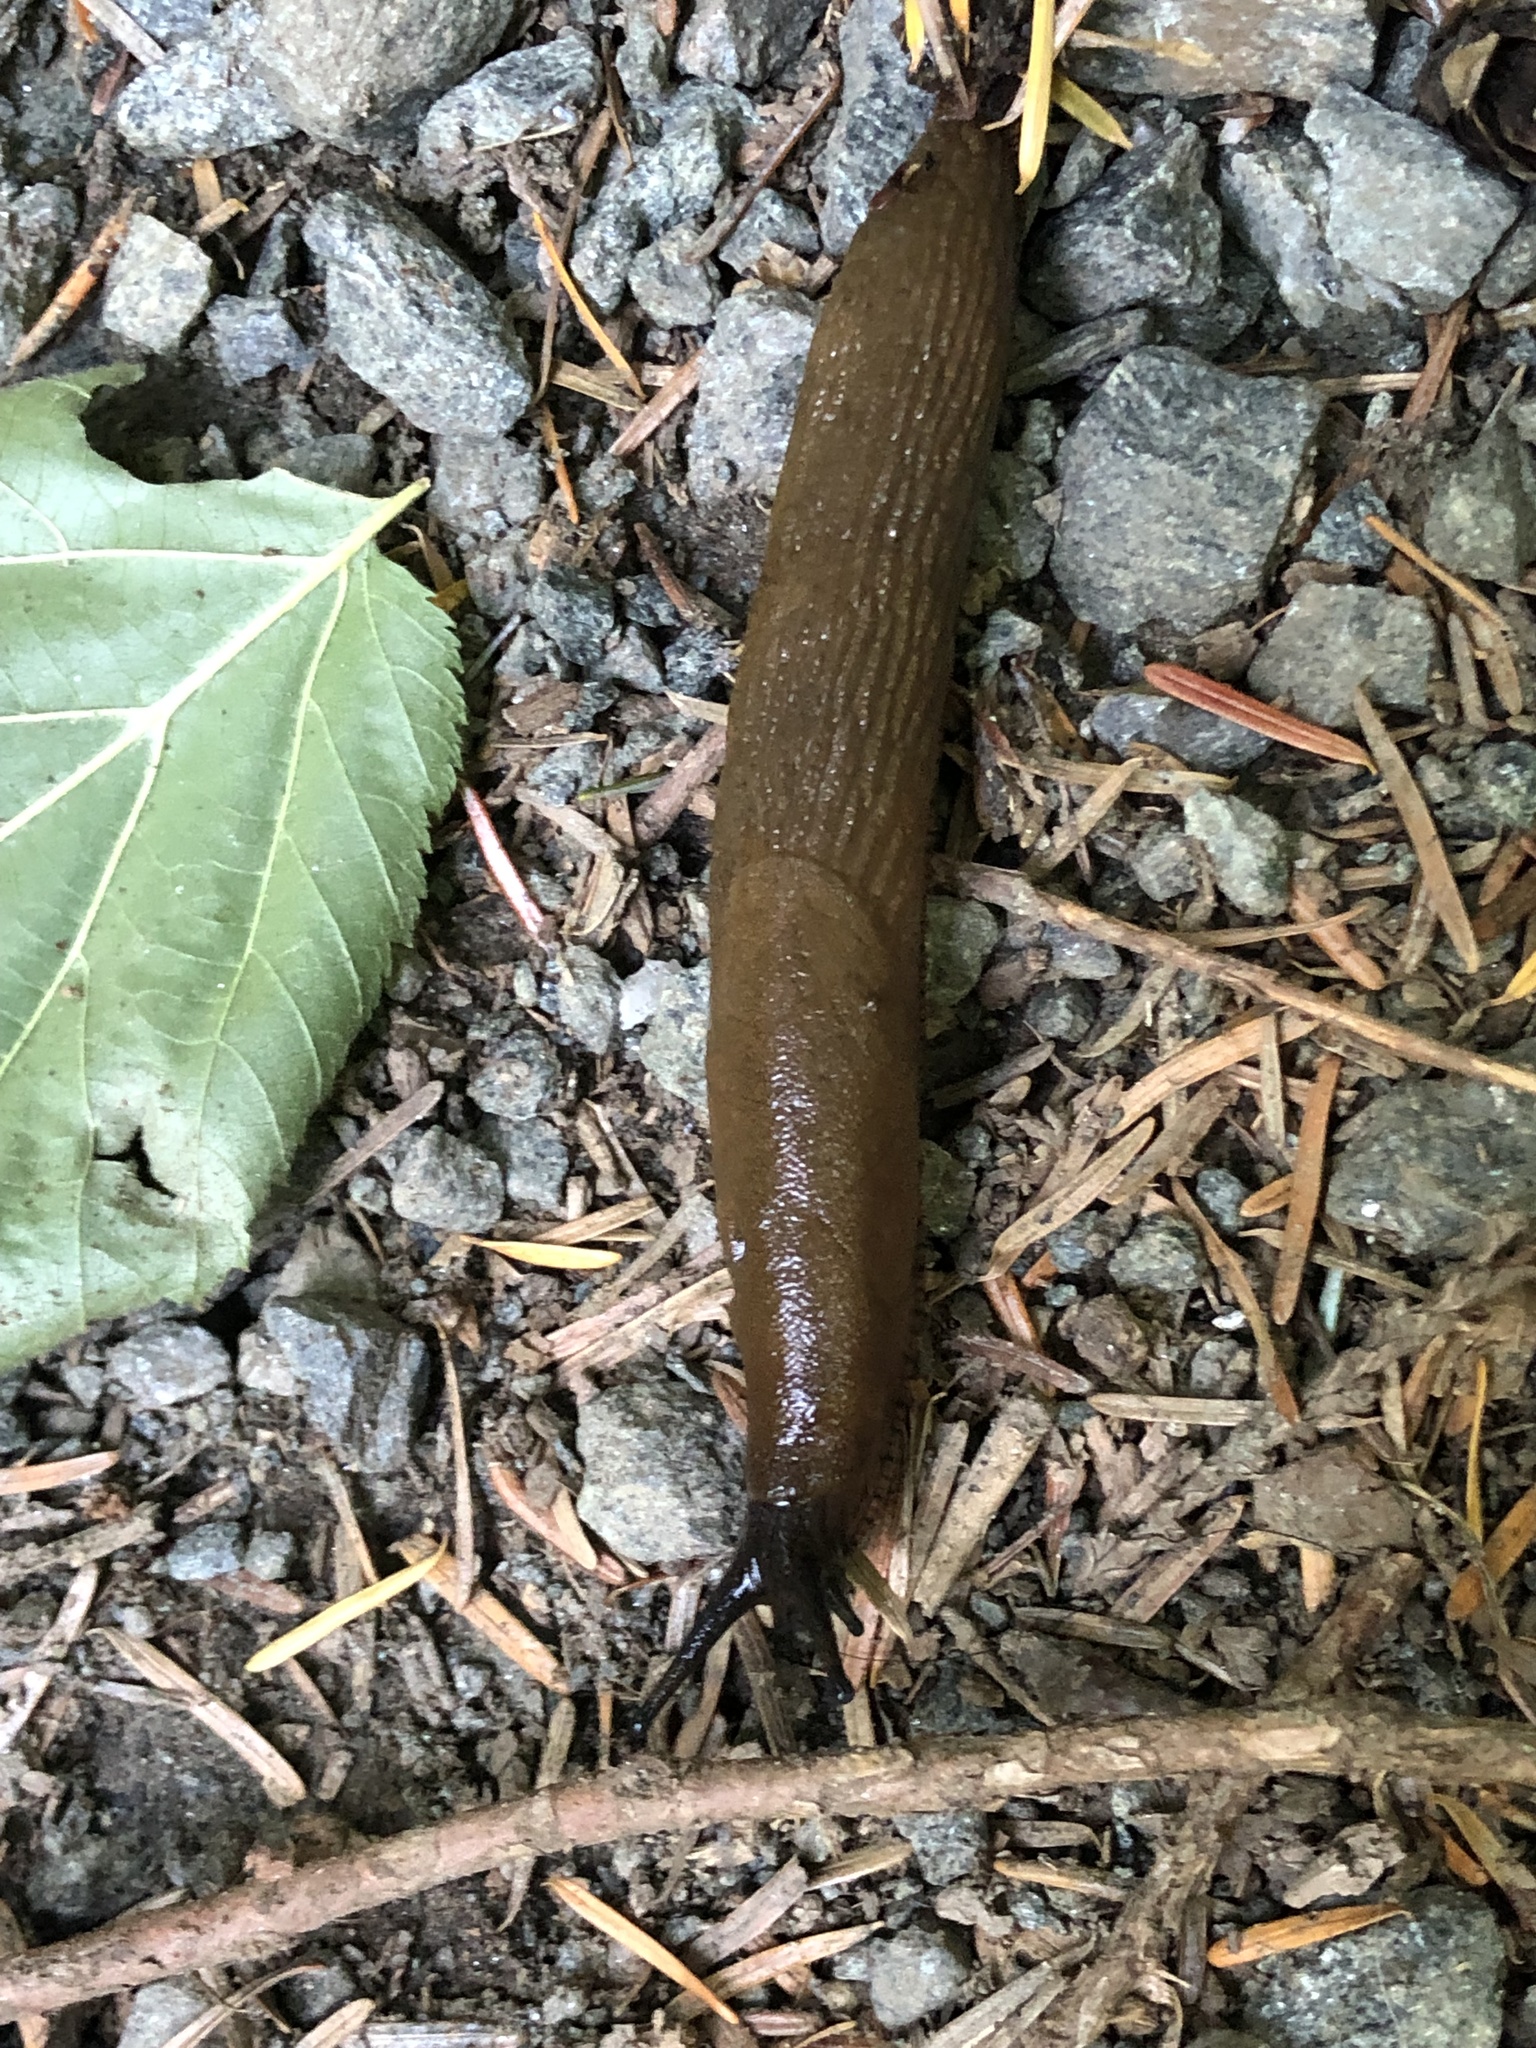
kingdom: Animalia
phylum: Mollusca
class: Gastropoda
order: Stylommatophora
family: Arionidae
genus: Arion
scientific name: Arion
